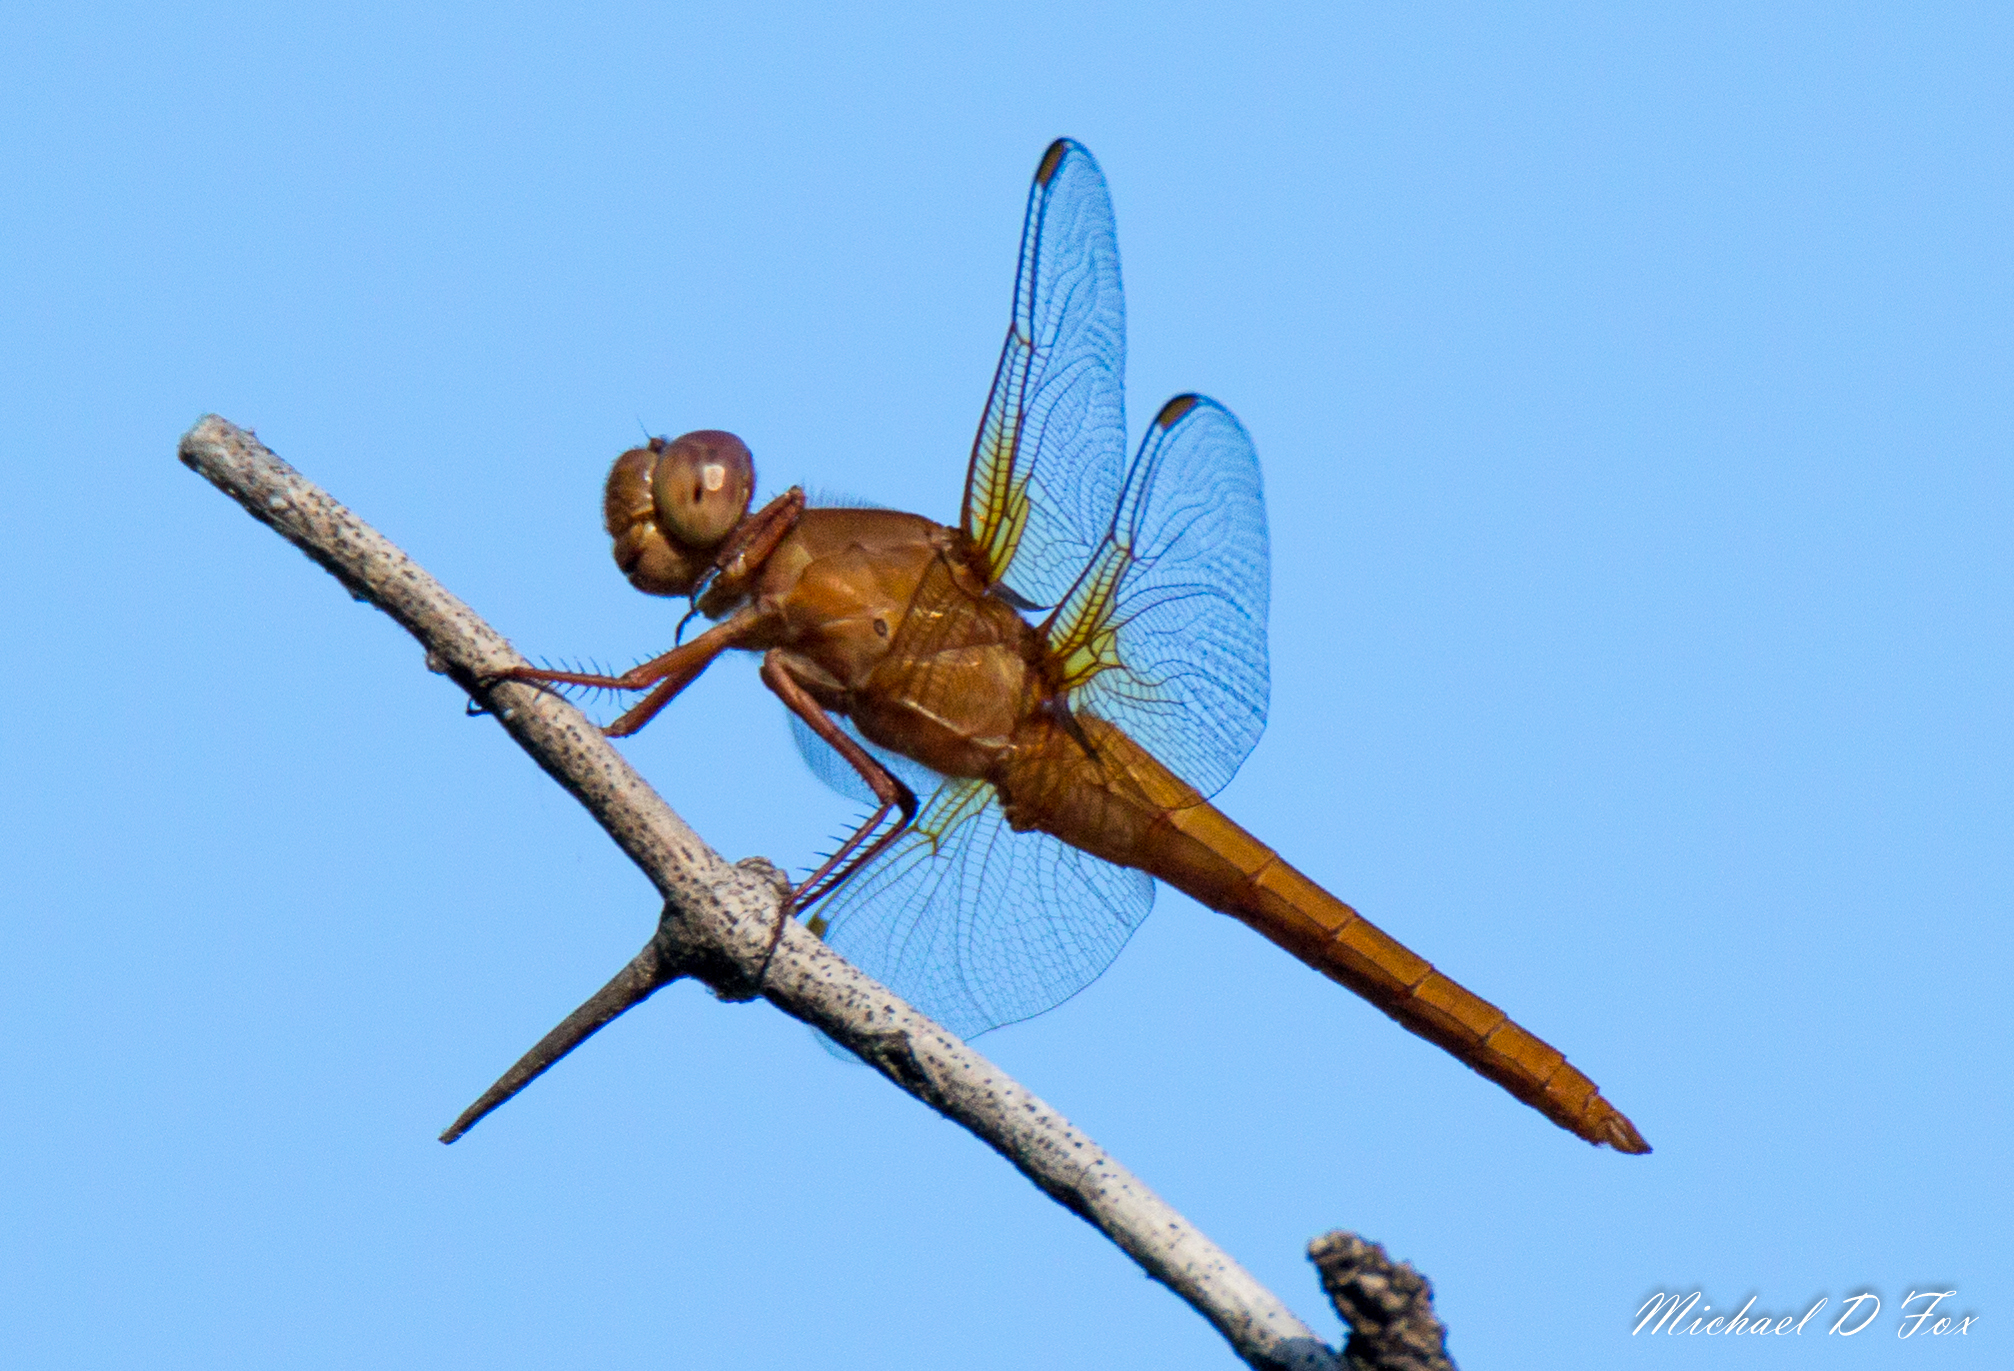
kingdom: Animalia
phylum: Arthropoda
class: Insecta
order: Odonata
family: Libellulidae
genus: Libellula
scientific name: Libellula croceipennis
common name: Neon skimmer
